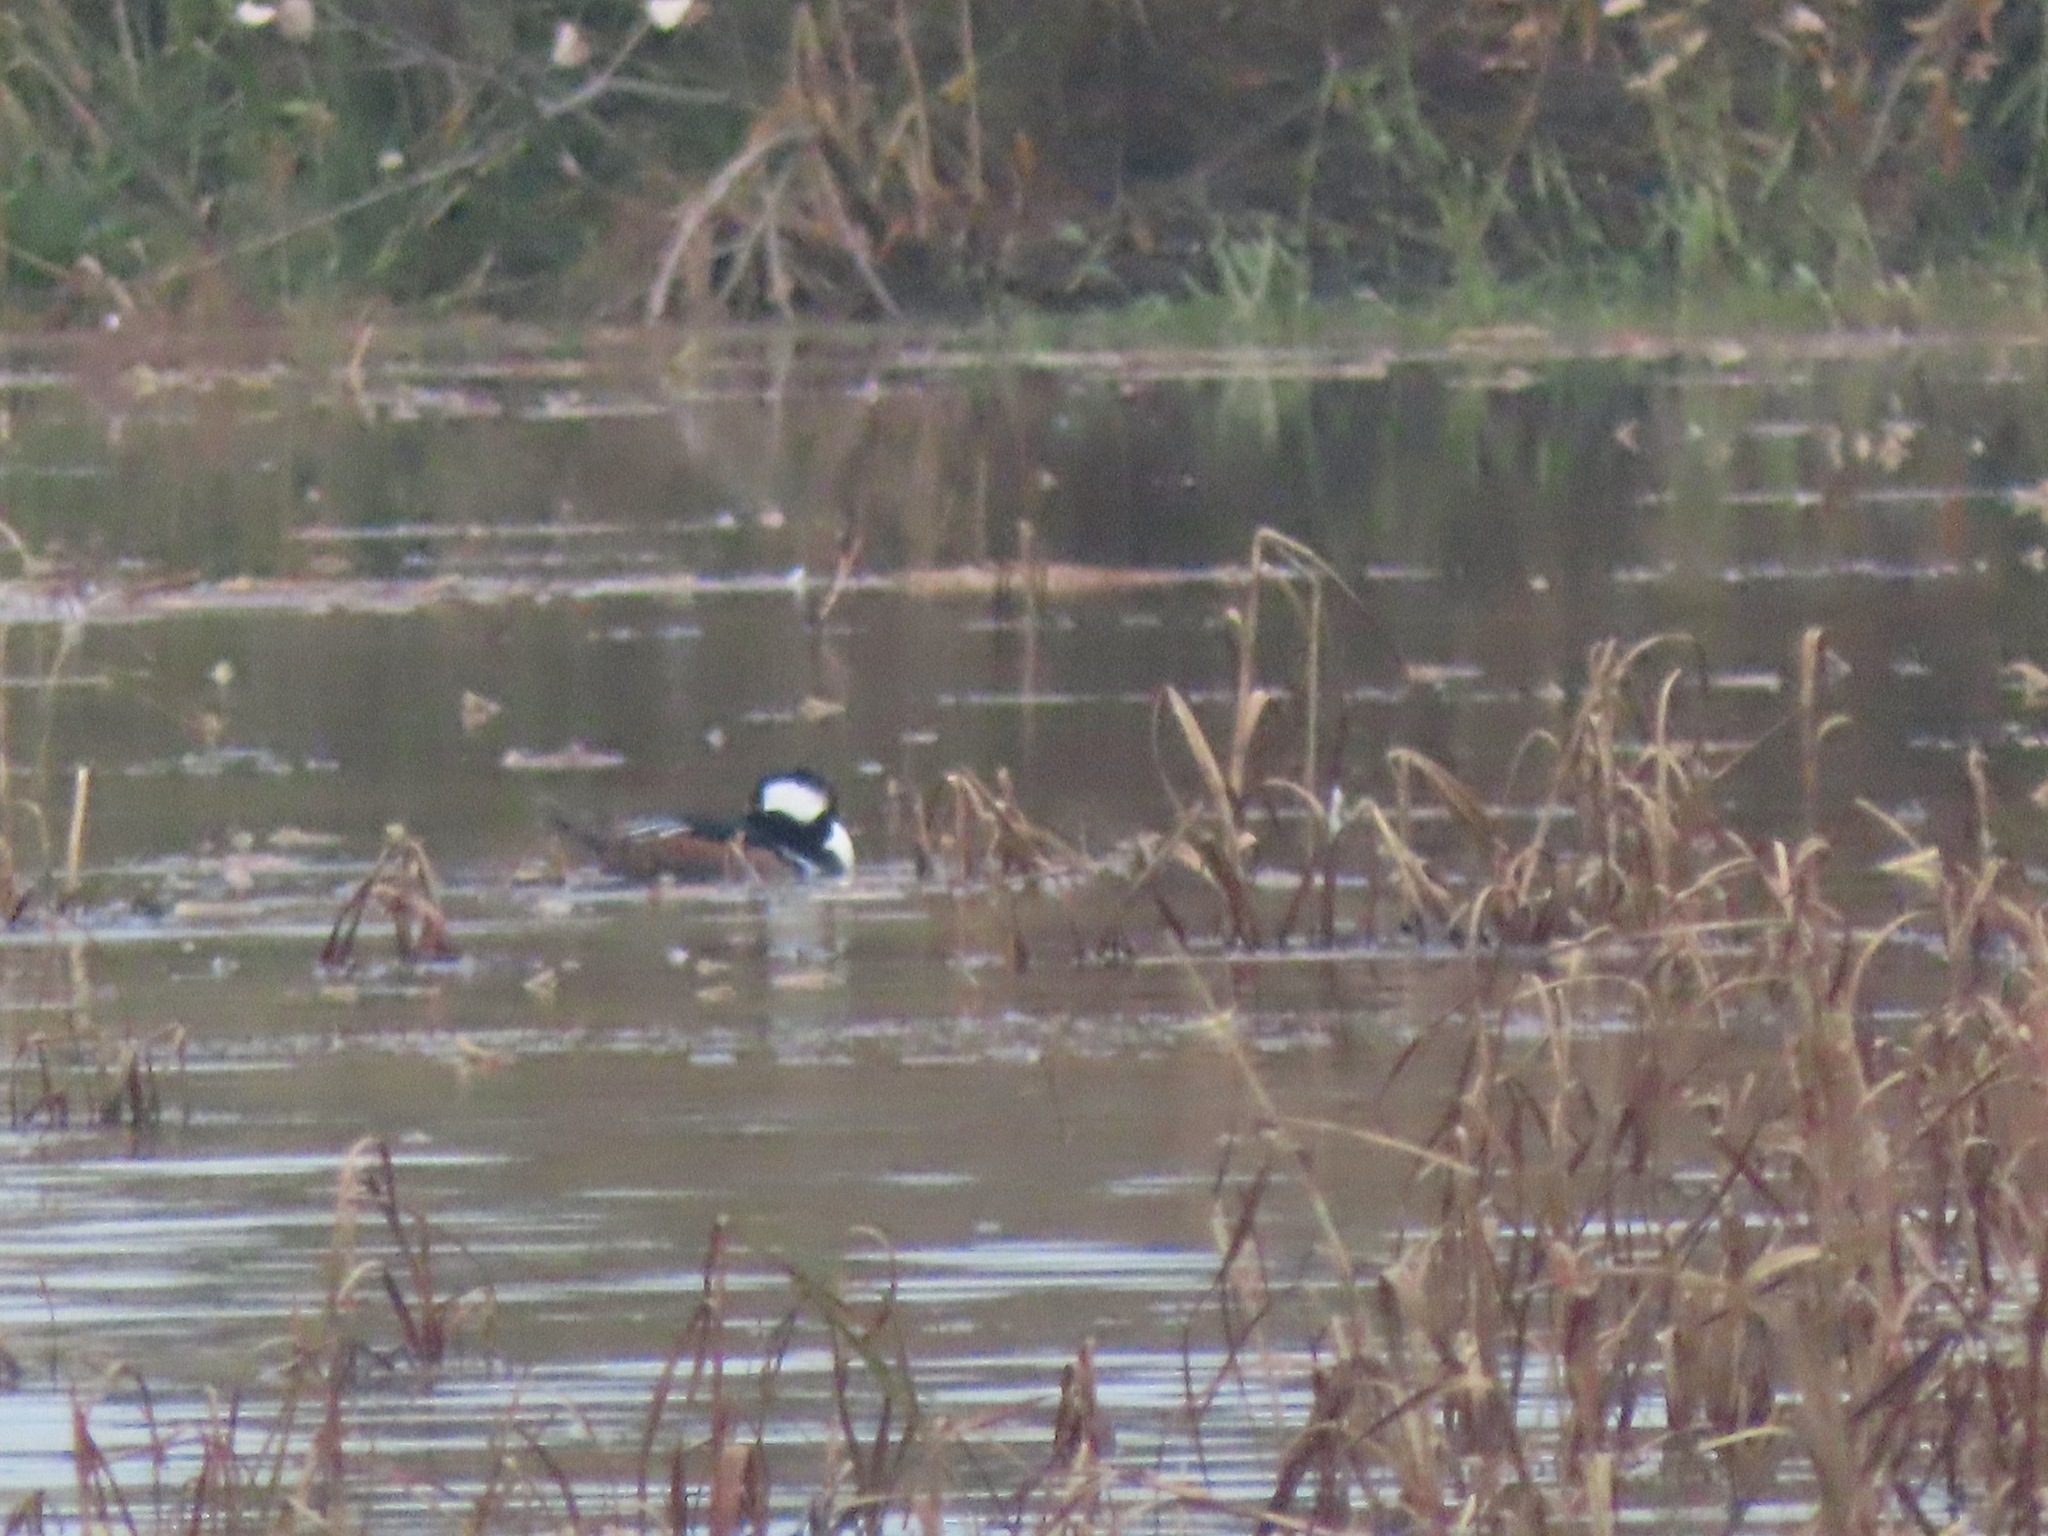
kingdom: Animalia
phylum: Chordata
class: Aves
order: Anseriformes
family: Anatidae
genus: Lophodytes
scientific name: Lophodytes cucullatus
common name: Hooded merganser
